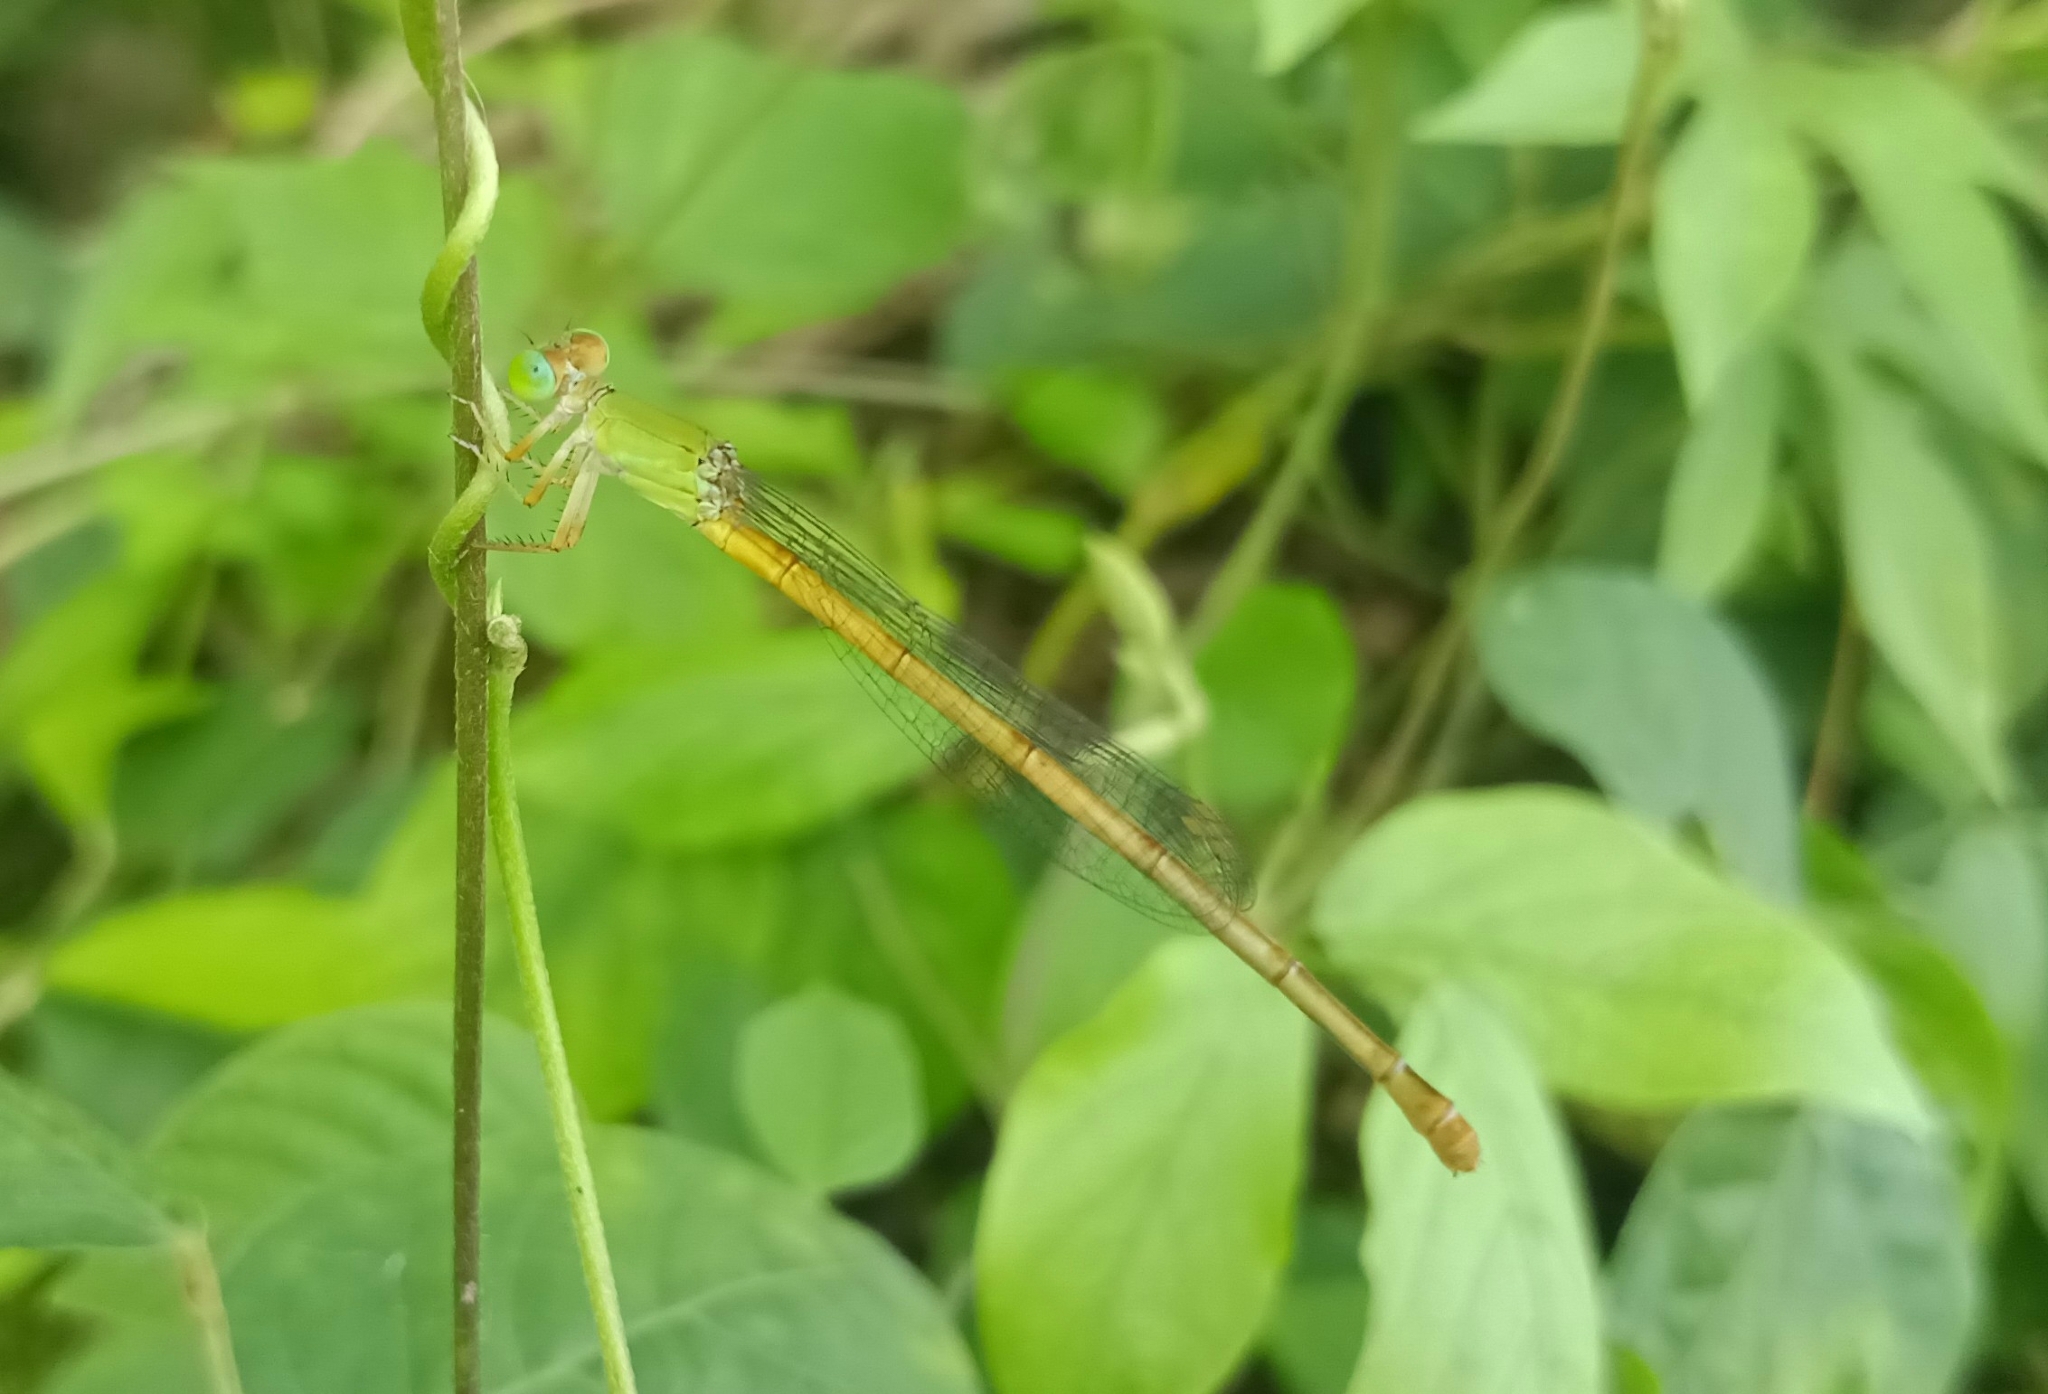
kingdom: Animalia
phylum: Arthropoda
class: Insecta
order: Odonata
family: Coenagrionidae
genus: Ceriagrion
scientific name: Ceriagrion coromandelianum
